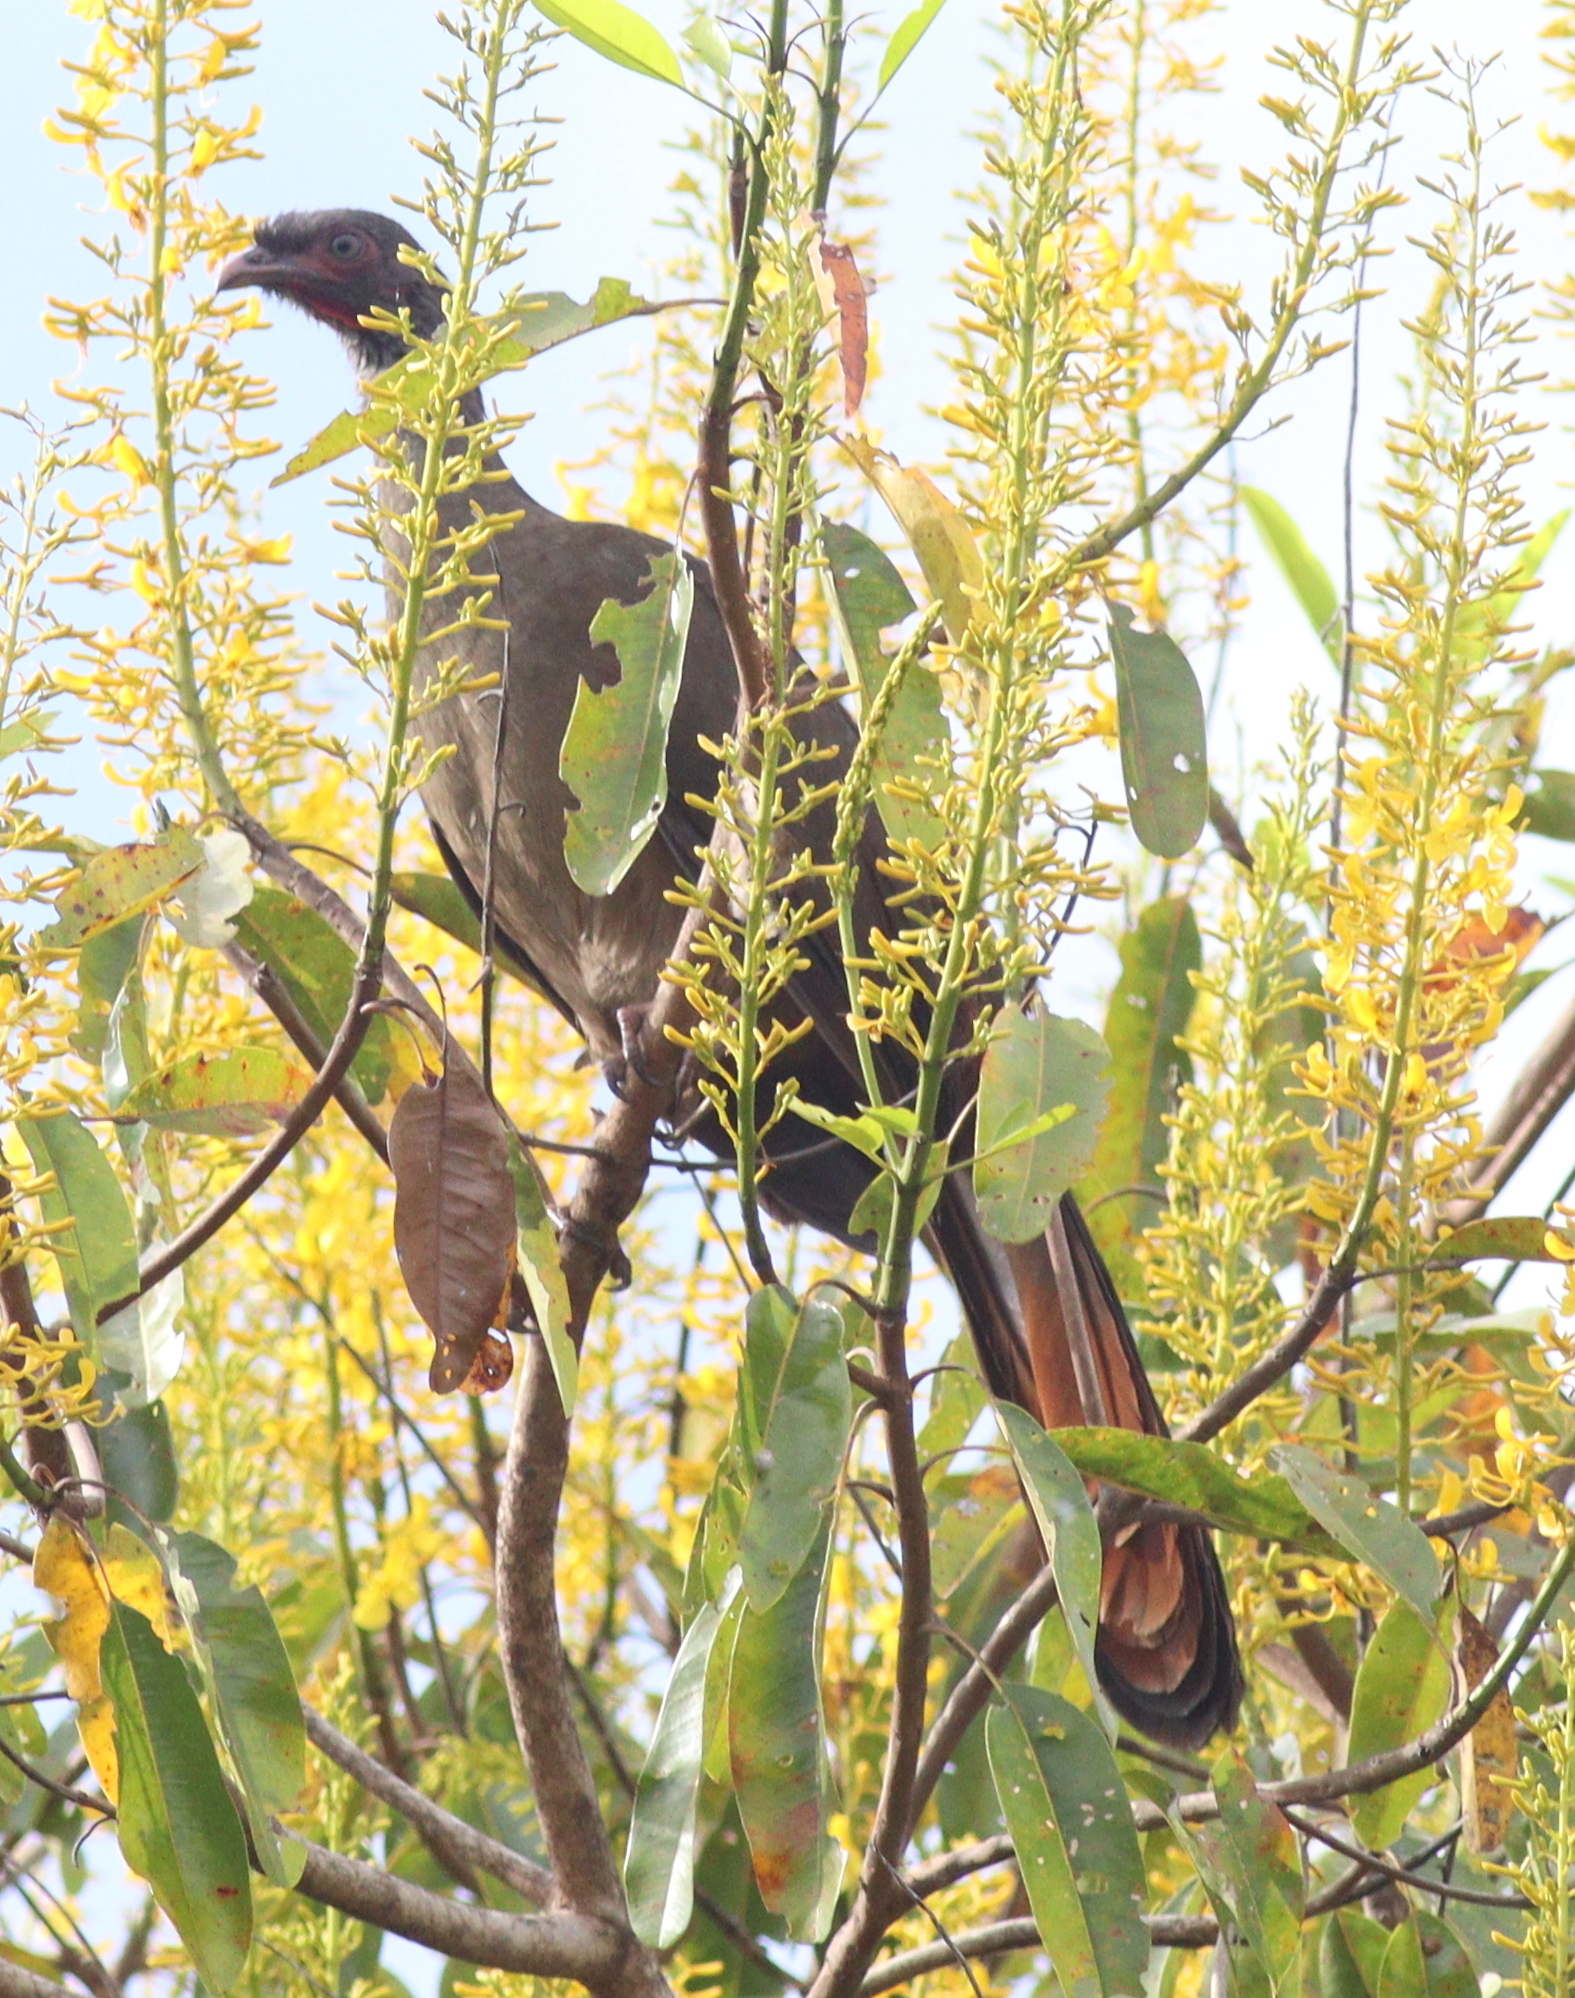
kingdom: Animalia
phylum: Chordata
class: Aves
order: Galliformes
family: Cracidae
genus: Ortalis
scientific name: Ortalis canicollis
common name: Chaco chachalaca
